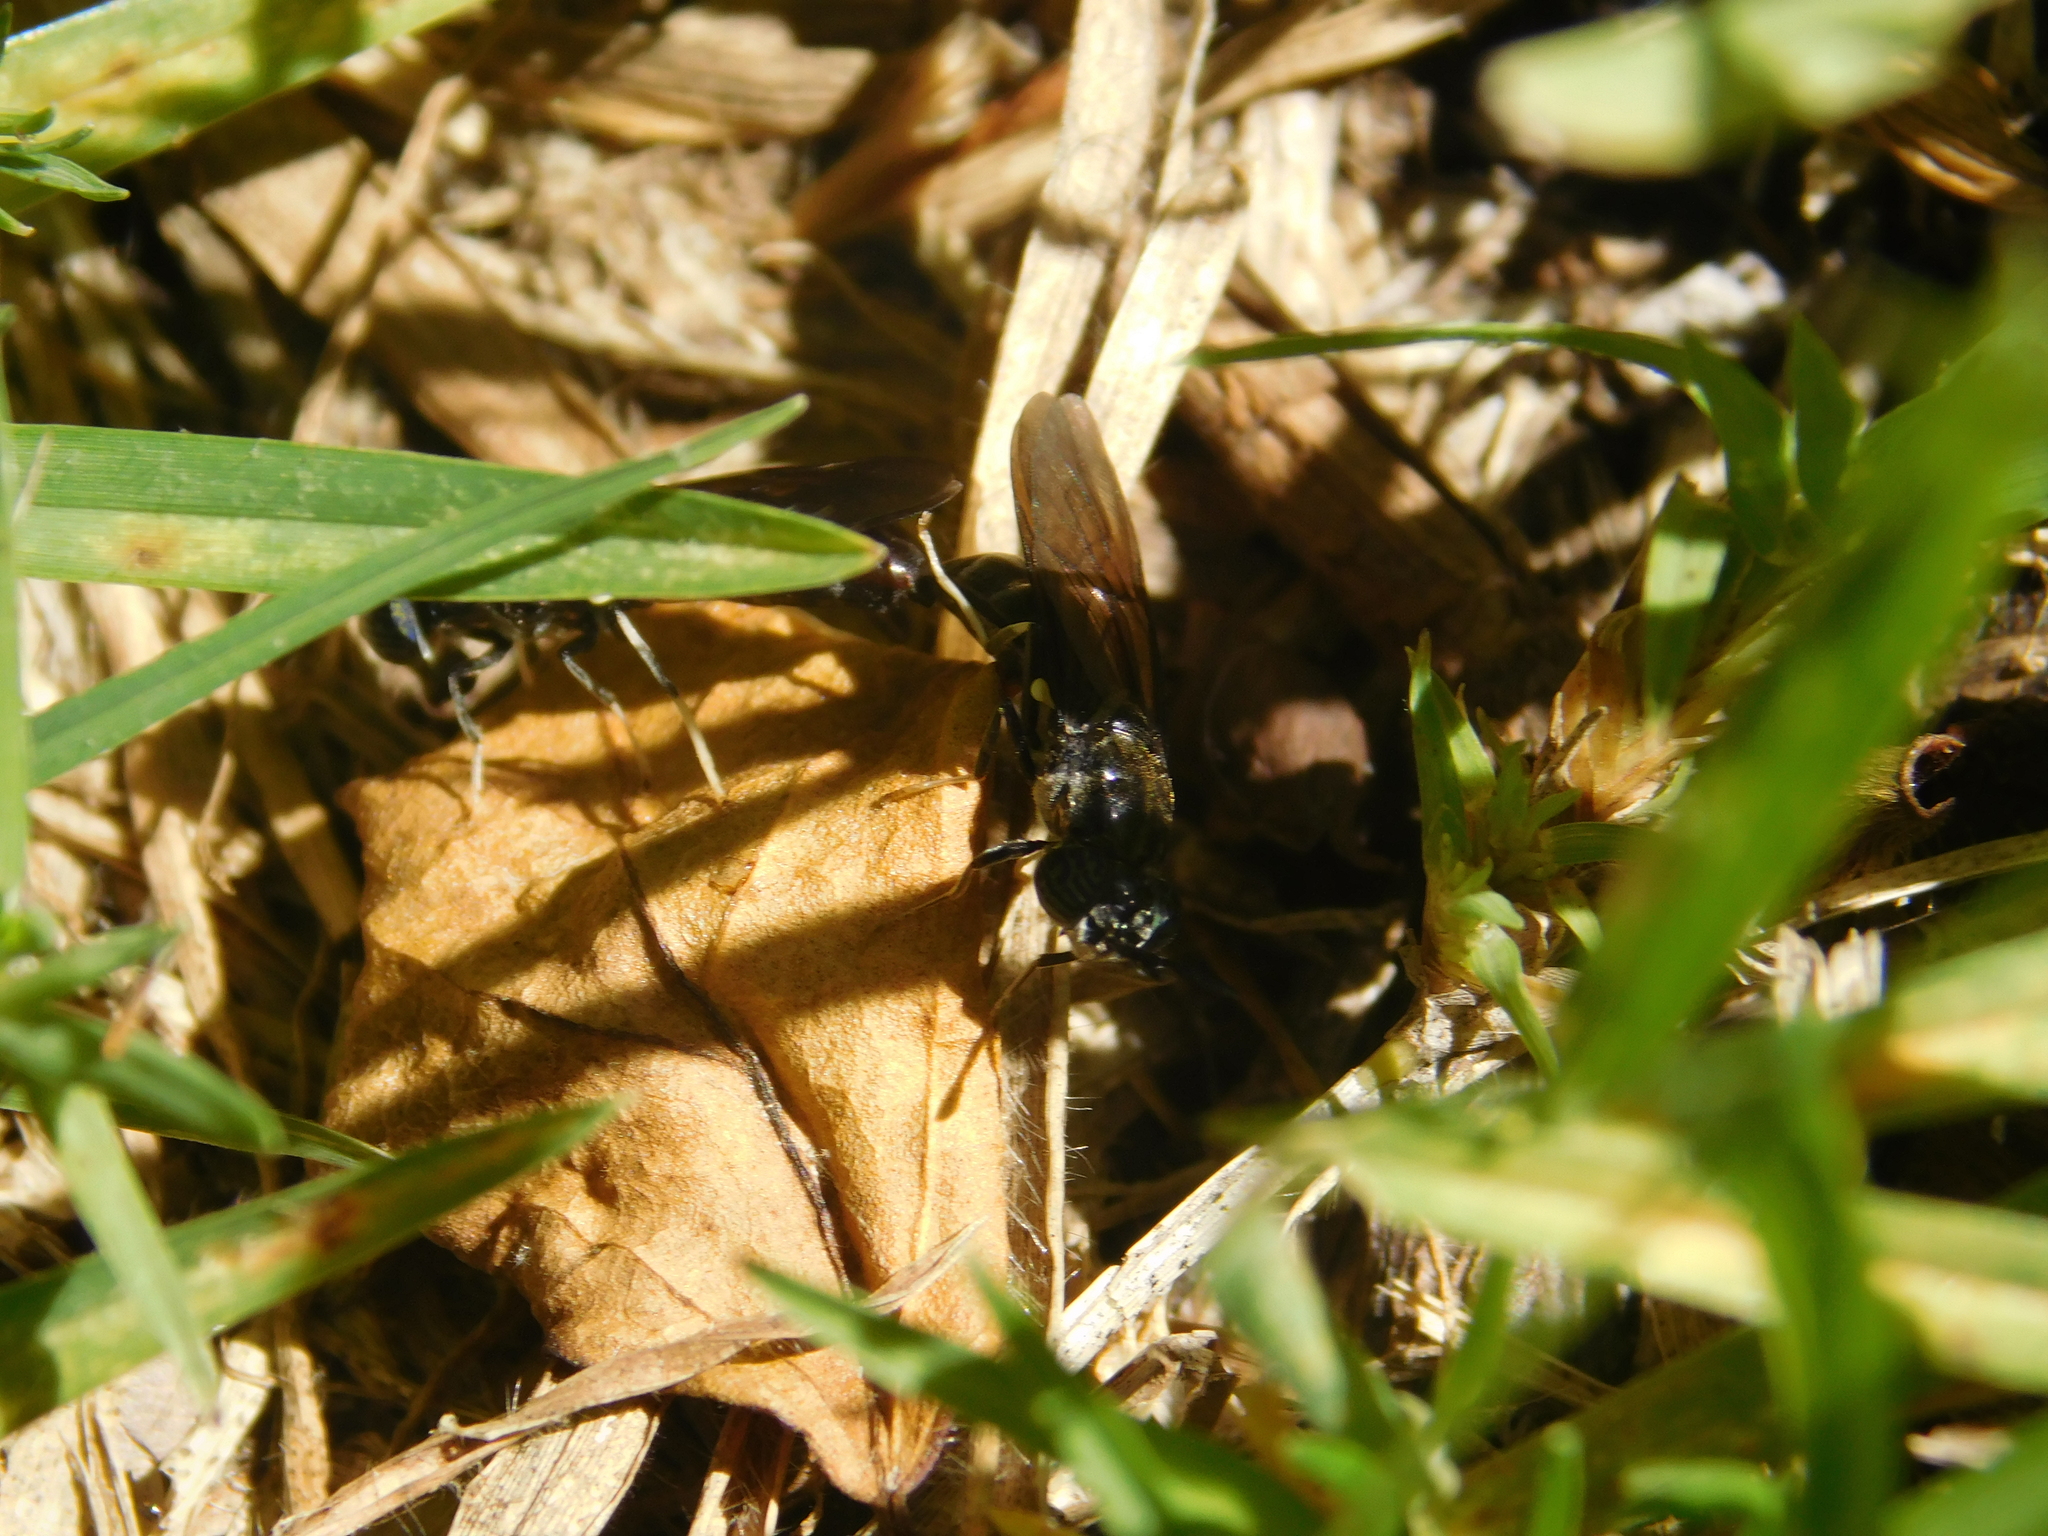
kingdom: Animalia
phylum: Arthropoda
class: Insecta
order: Diptera
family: Stratiomyidae
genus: Hermetia
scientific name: Hermetia illucens
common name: Black soldier fly
